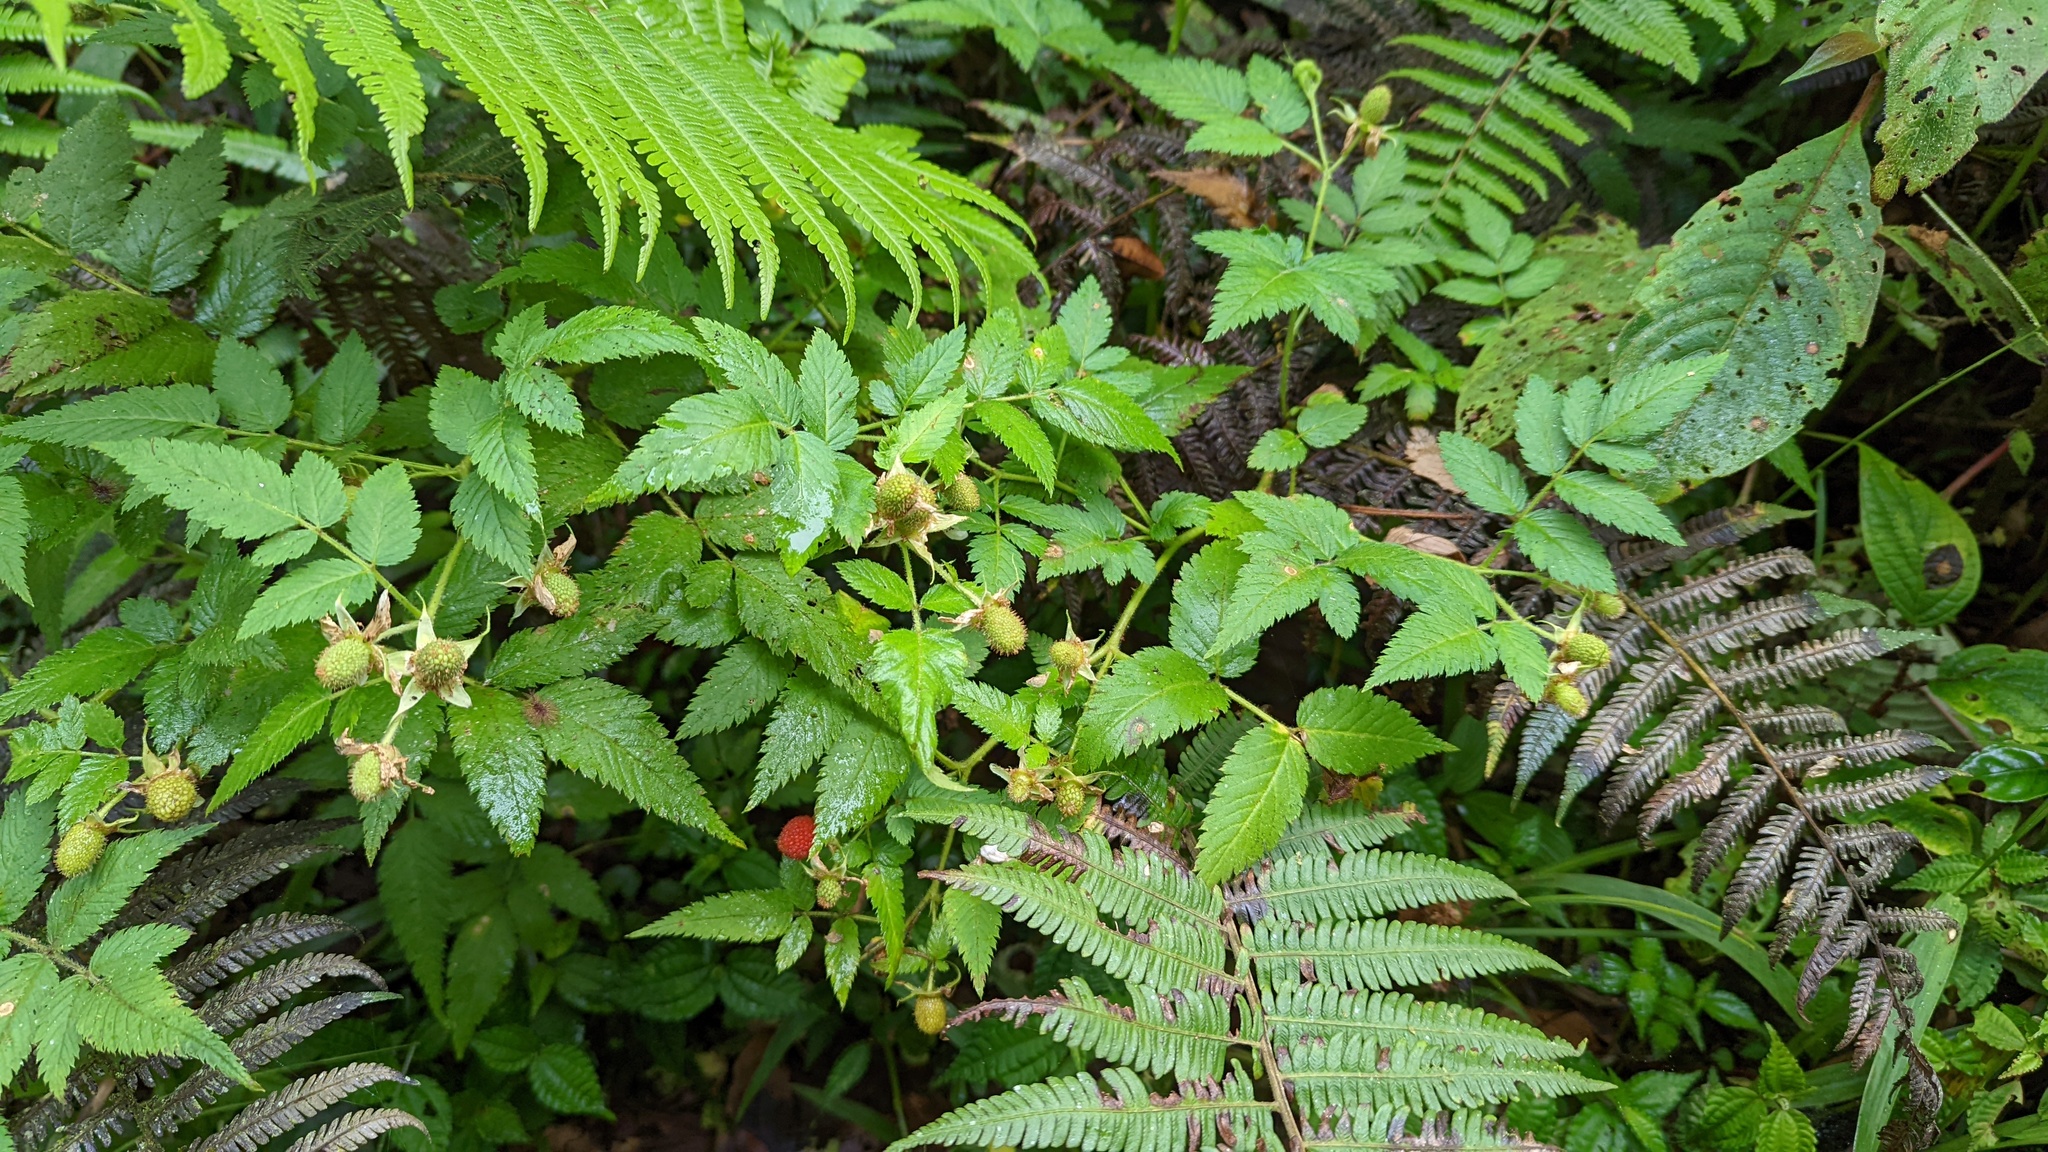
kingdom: Plantae
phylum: Tracheophyta
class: Magnoliopsida
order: Rosales
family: Rosaceae
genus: Rubus
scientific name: Rubus rosifolius
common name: Roseleaf raspberry
